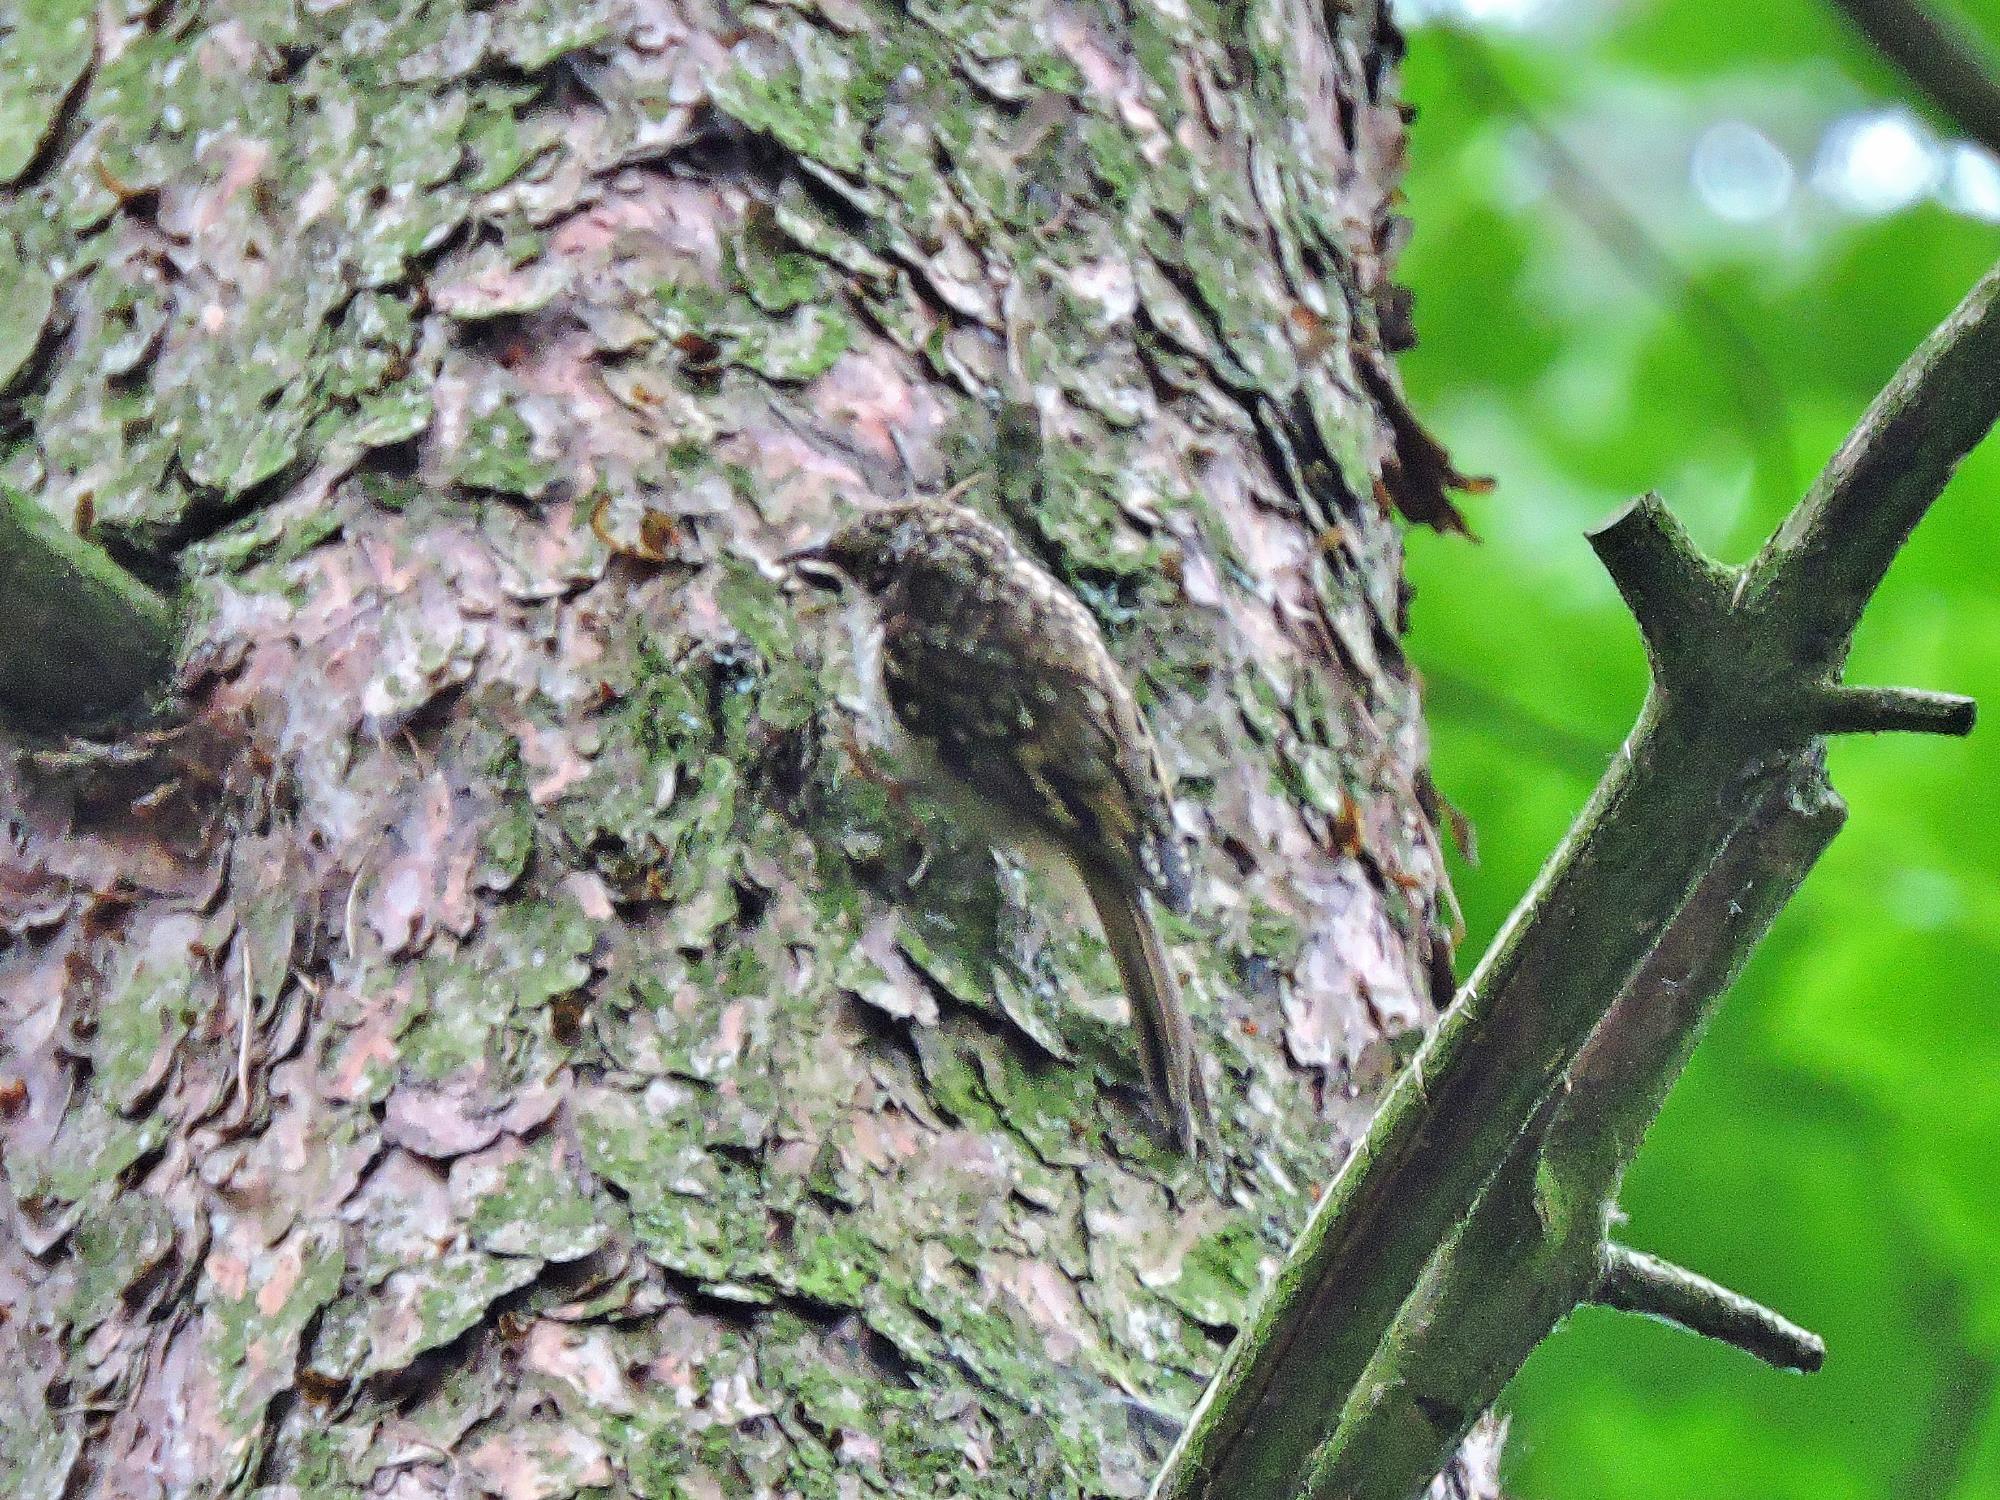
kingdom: Animalia
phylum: Chordata
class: Aves
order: Passeriformes
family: Certhiidae
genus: Certhia
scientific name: Certhia familiaris
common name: Eurasian treecreeper
